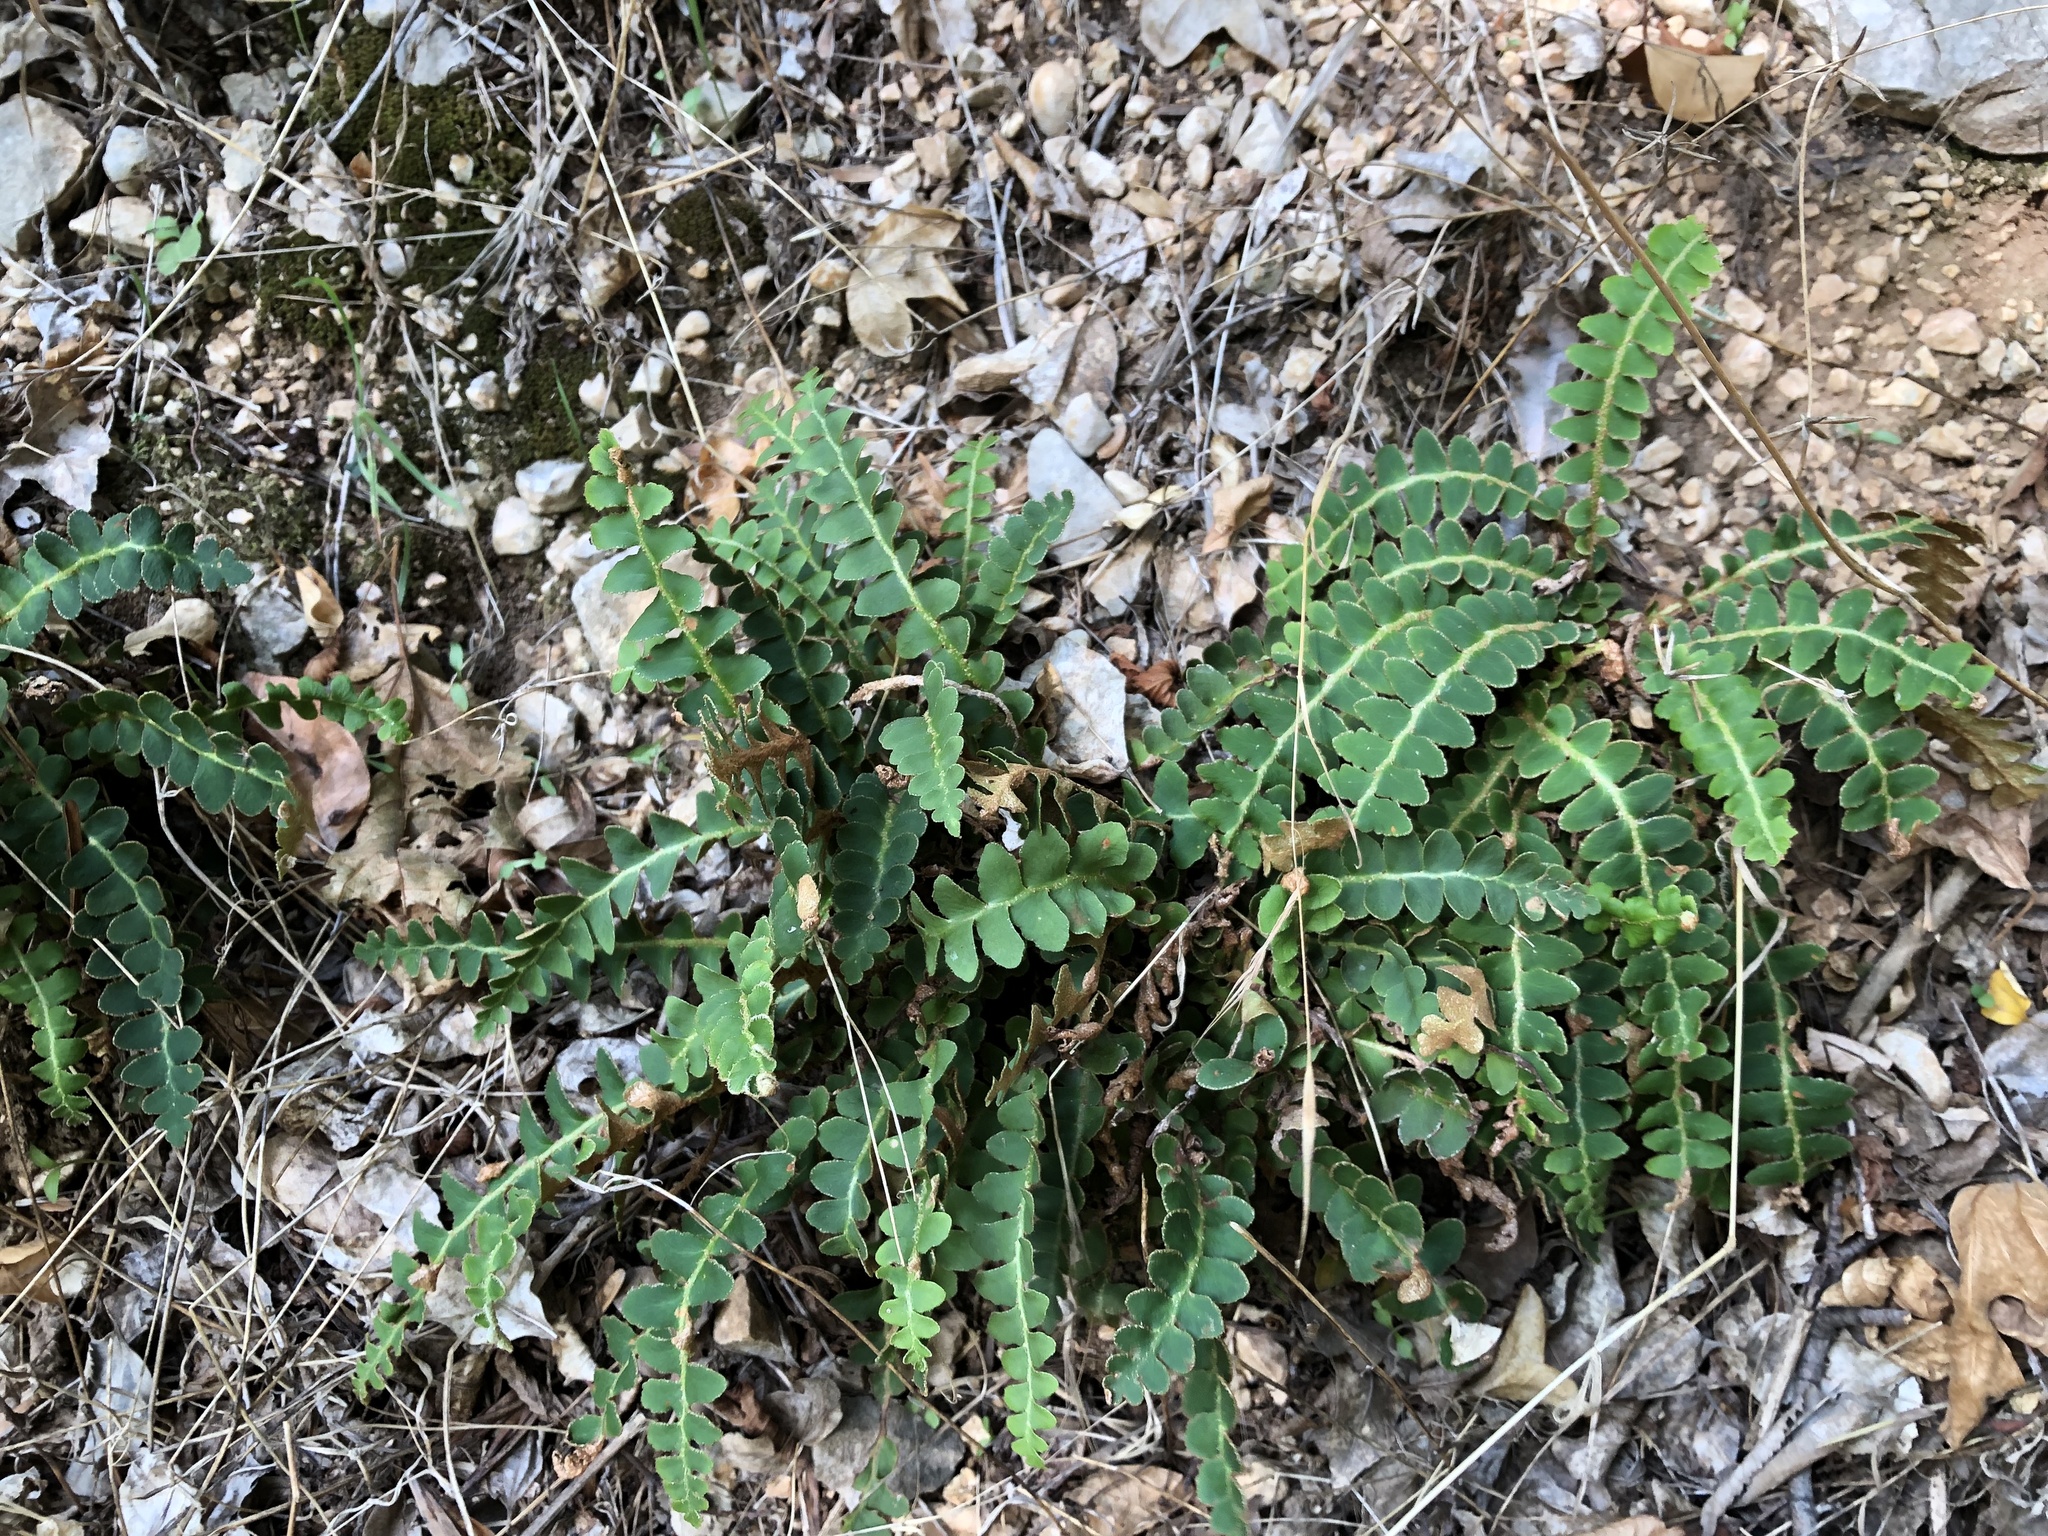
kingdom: Plantae
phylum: Tracheophyta
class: Polypodiopsida
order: Polypodiales
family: Aspleniaceae
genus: Asplenium
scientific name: Asplenium ceterach
